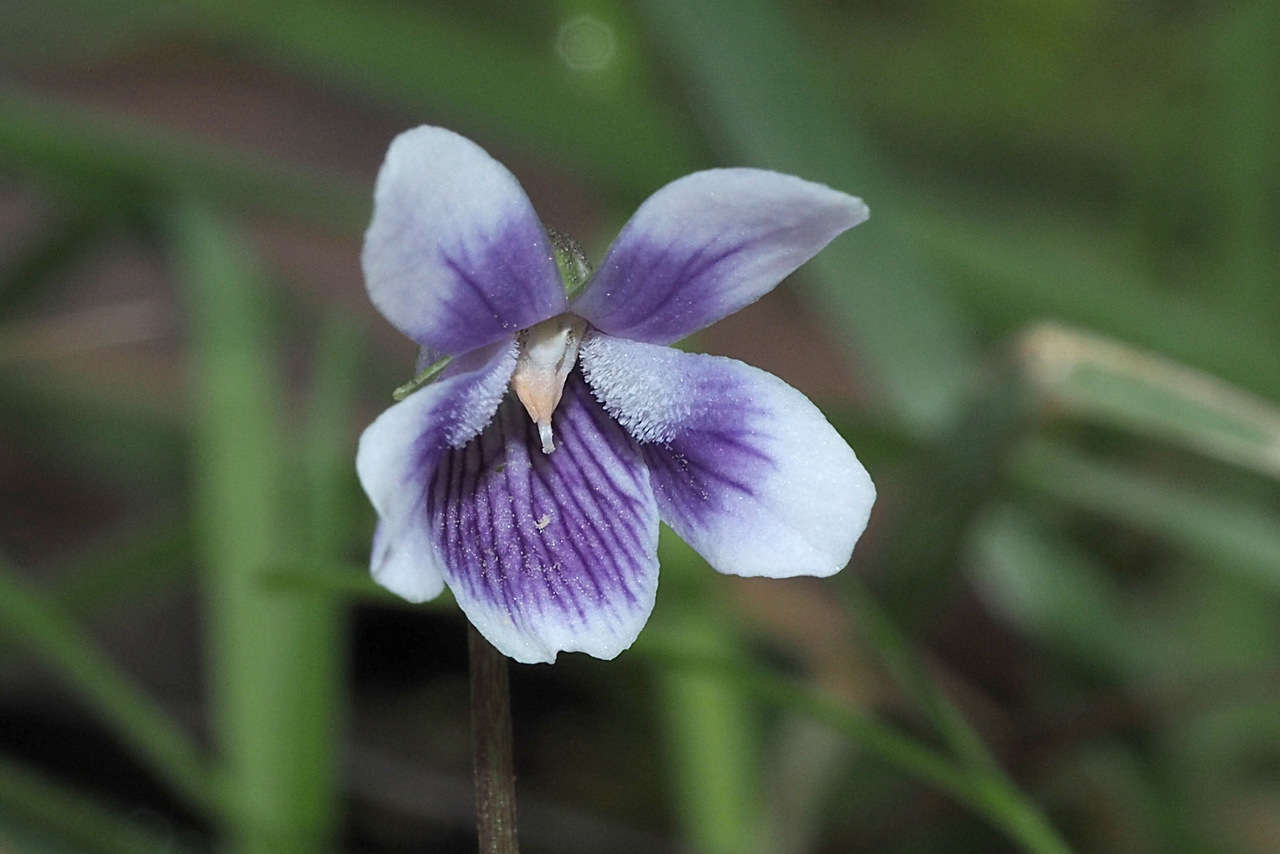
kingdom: Plantae
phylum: Tracheophyta
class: Magnoliopsida
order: Malpighiales
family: Violaceae
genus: Viola
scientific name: Viola hederacea
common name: Australian violet
